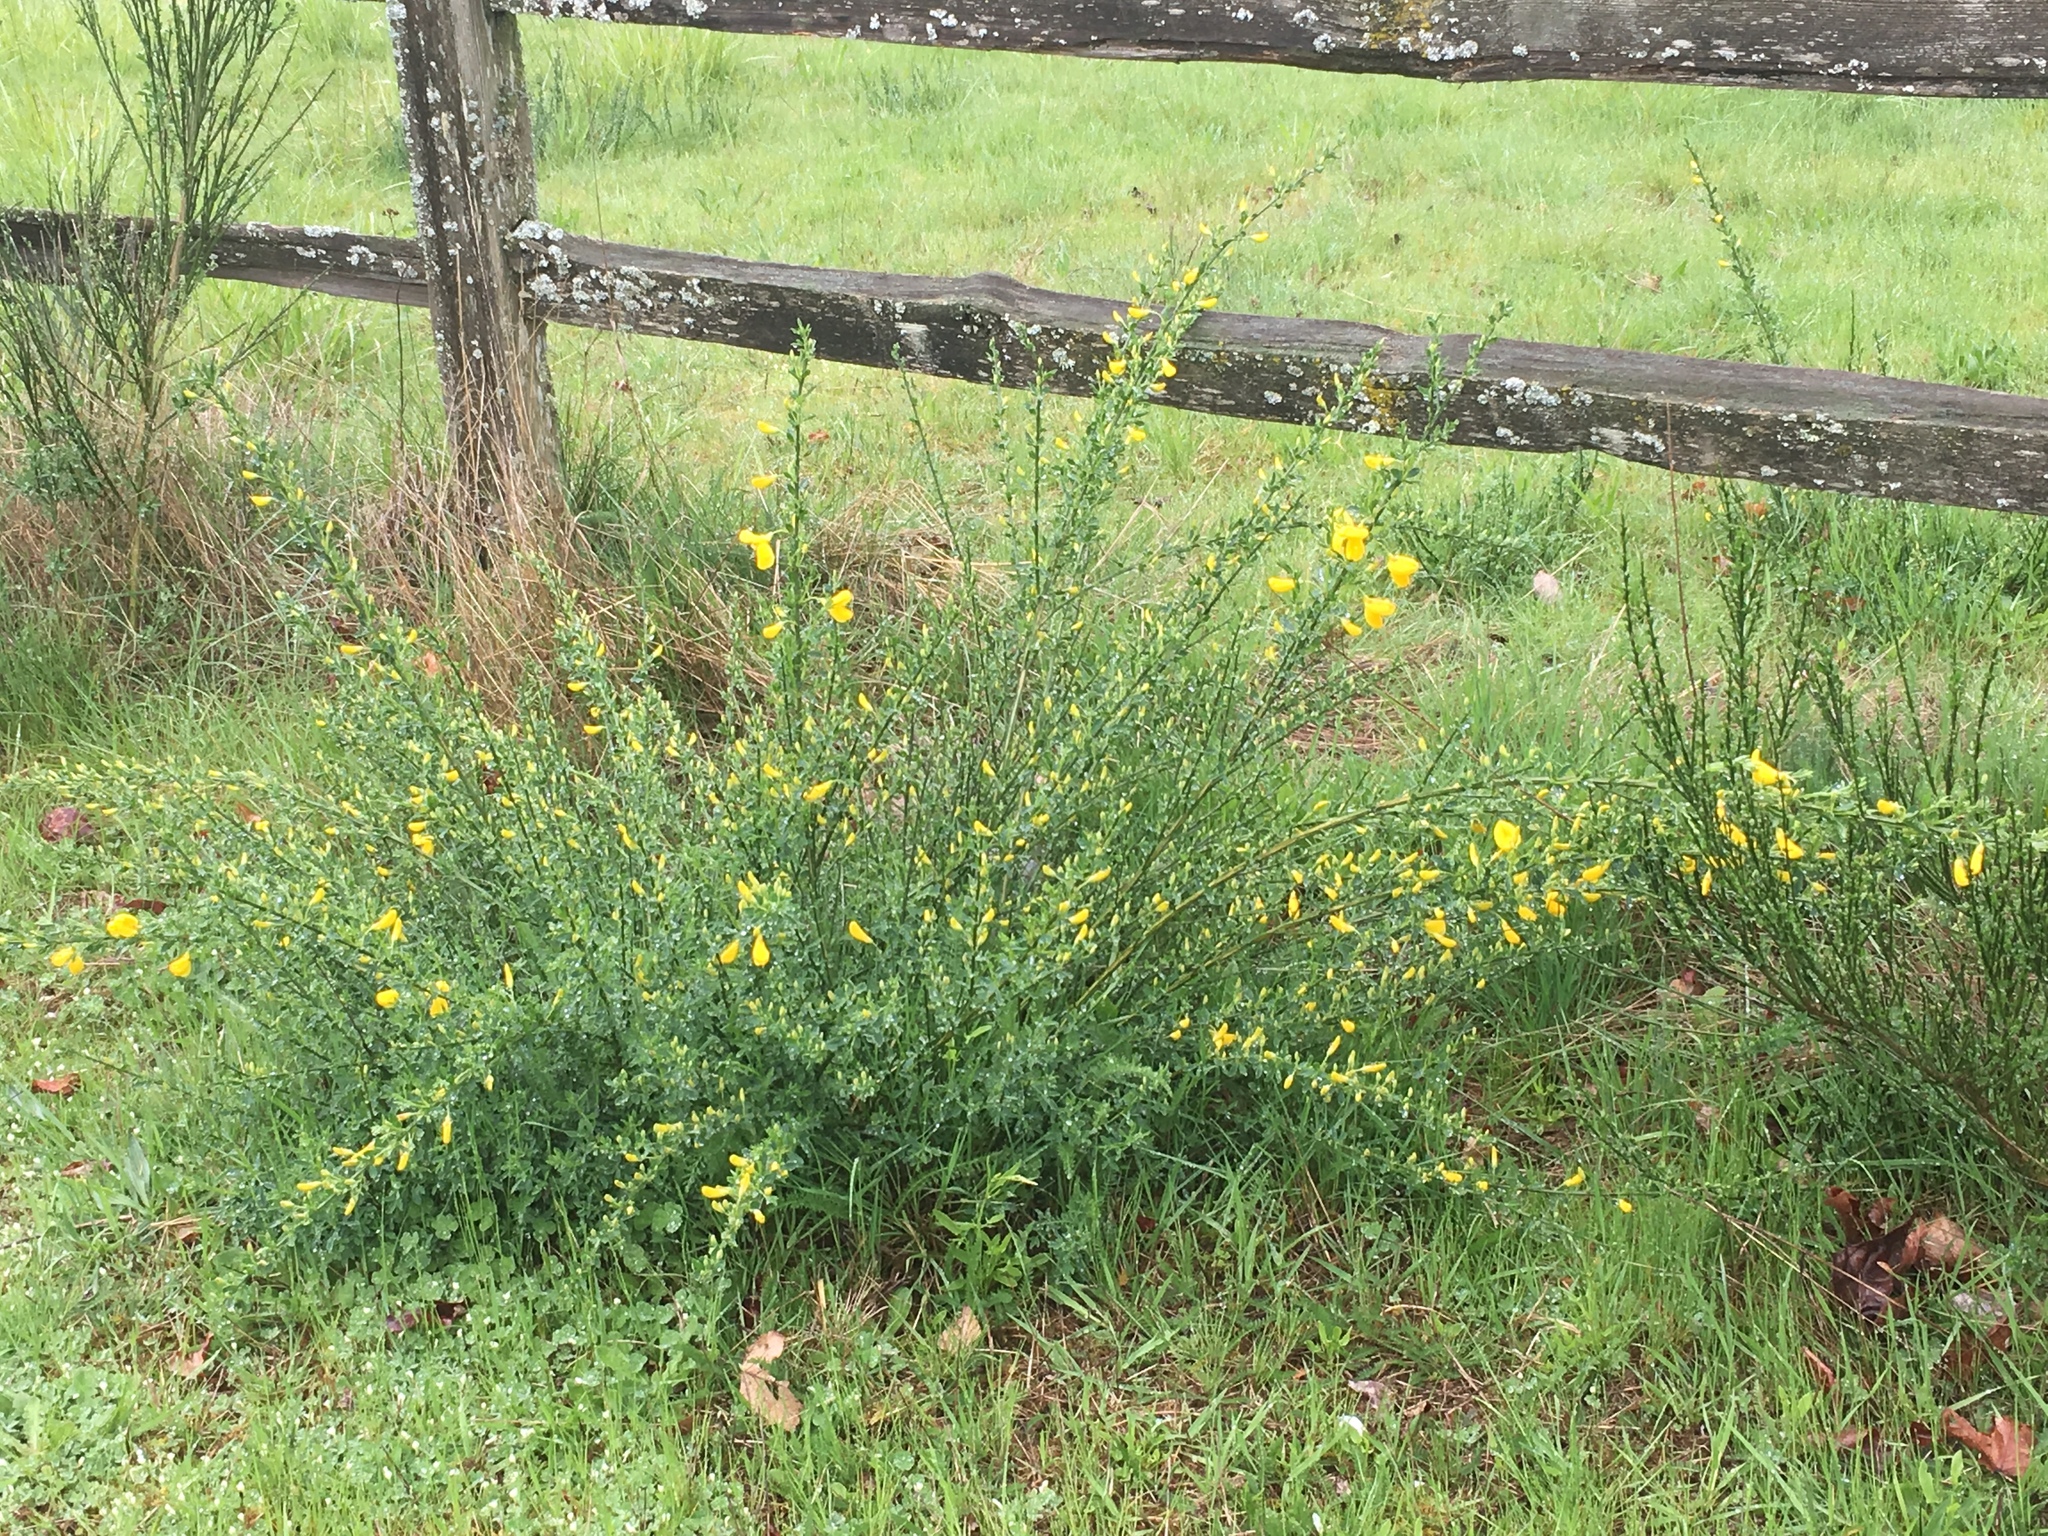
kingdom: Plantae
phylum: Tracheophyta
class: Magnoliopsida
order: Fabales
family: Fabaceae
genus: Cytisus
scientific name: Cytisus scoparius
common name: Scotch broom
